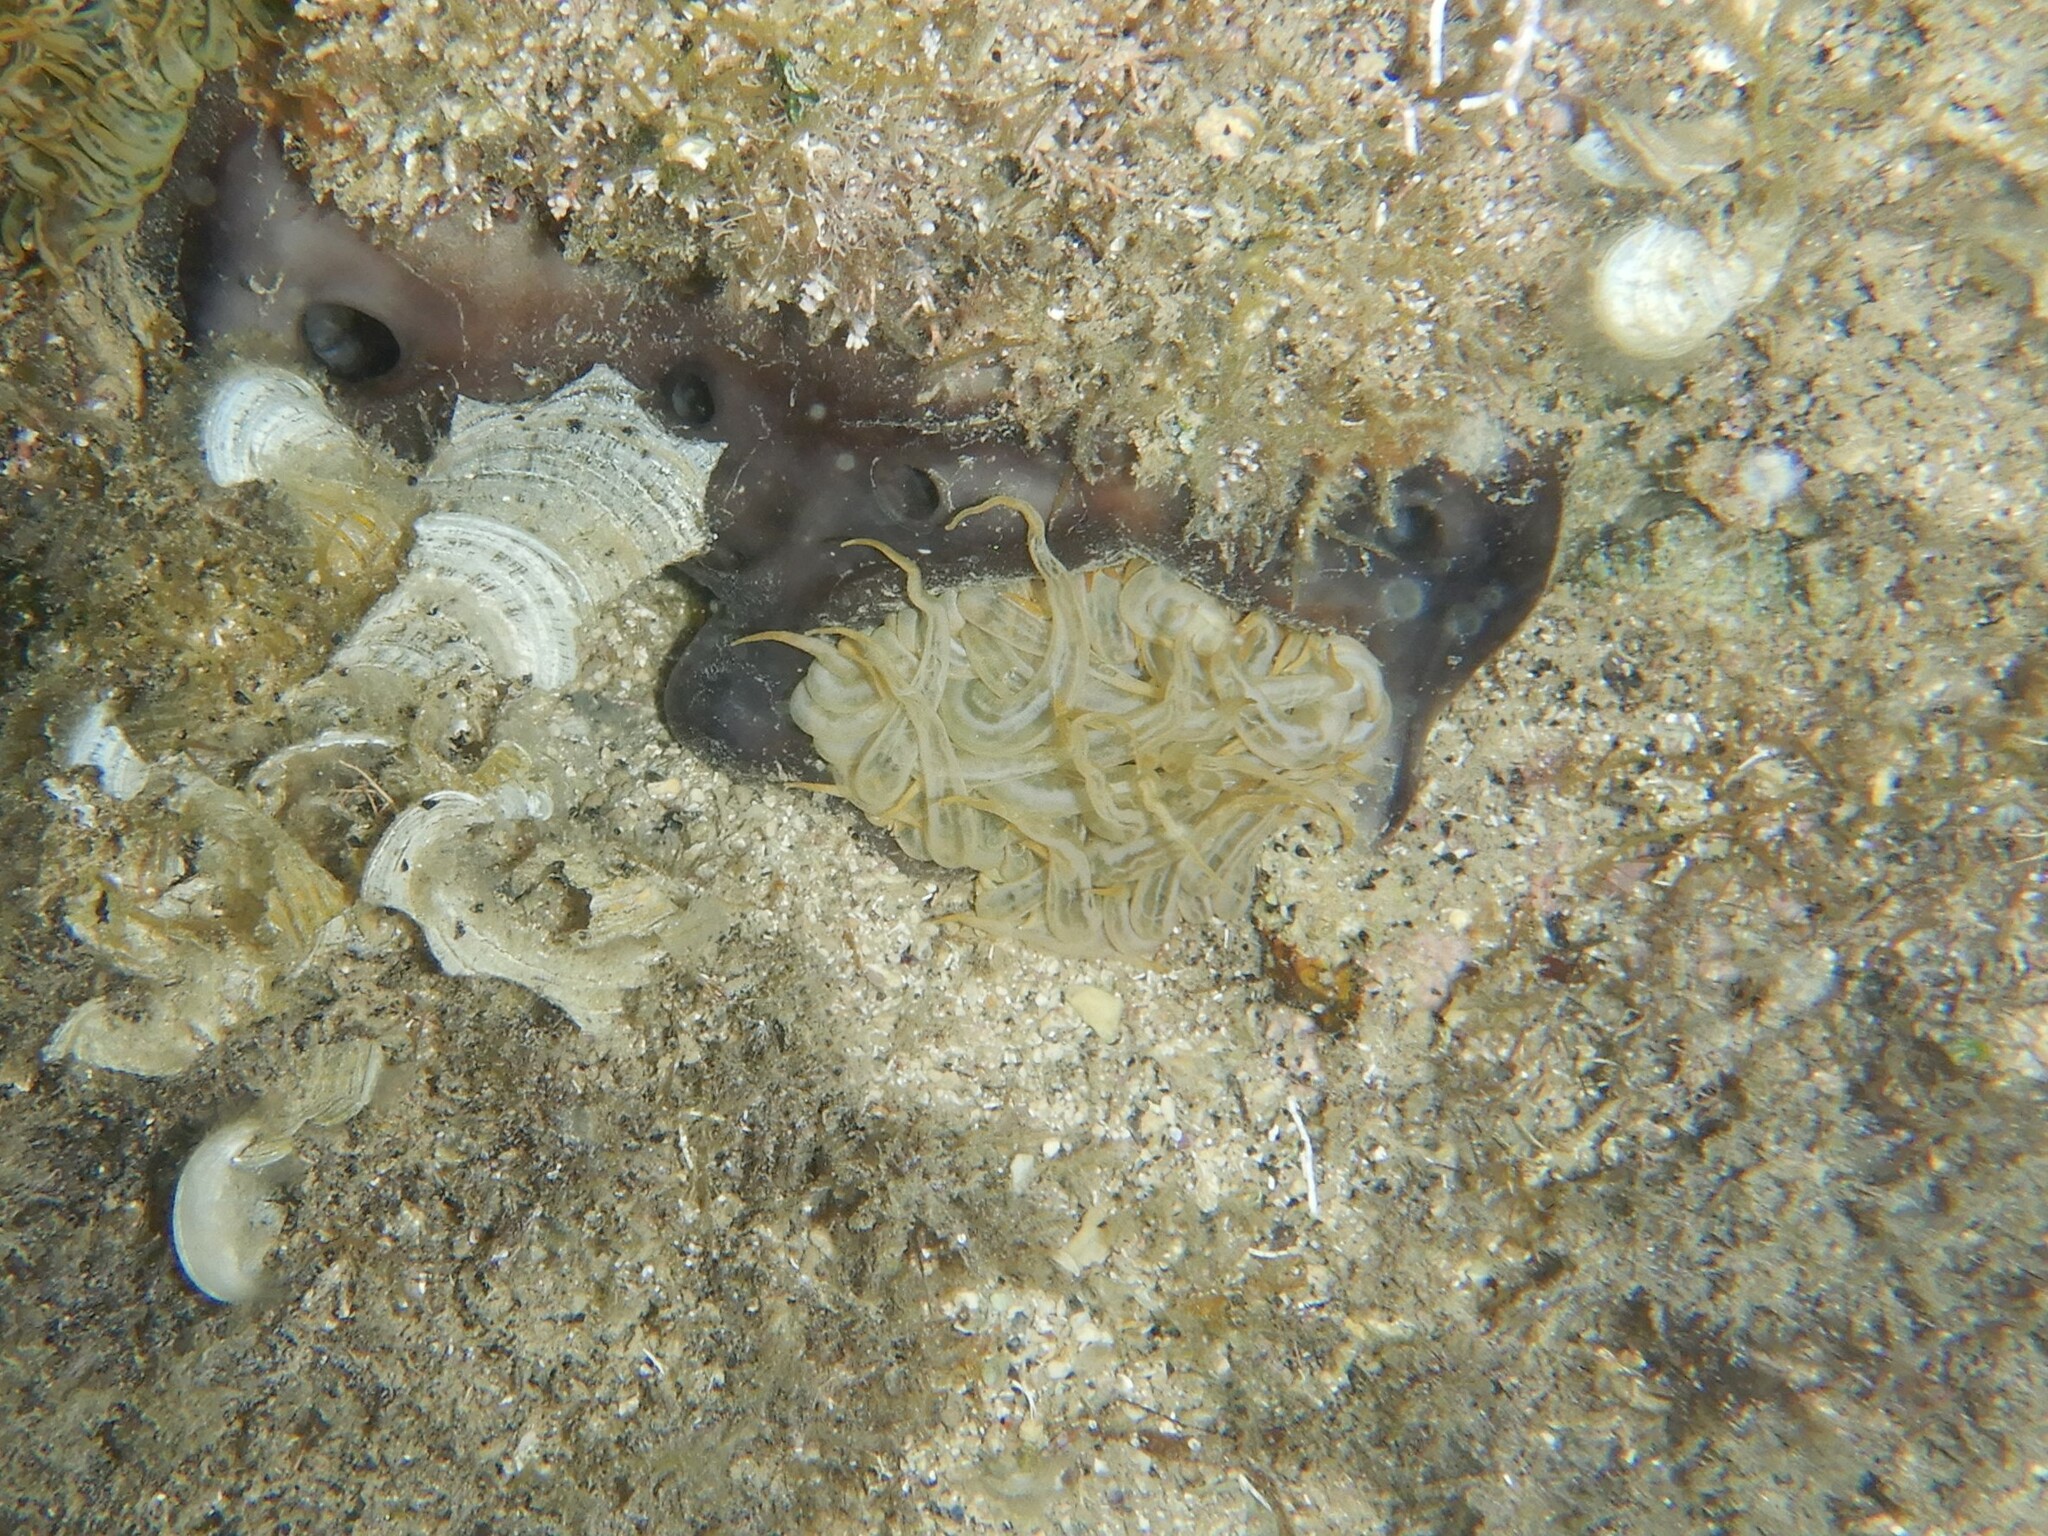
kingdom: Animalia
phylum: Cnidaria
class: Anthozoa
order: Actiniaria
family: Aiptasiidae
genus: Aiptasia
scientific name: Aiptasia mutabilis
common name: Trumpet anemone
